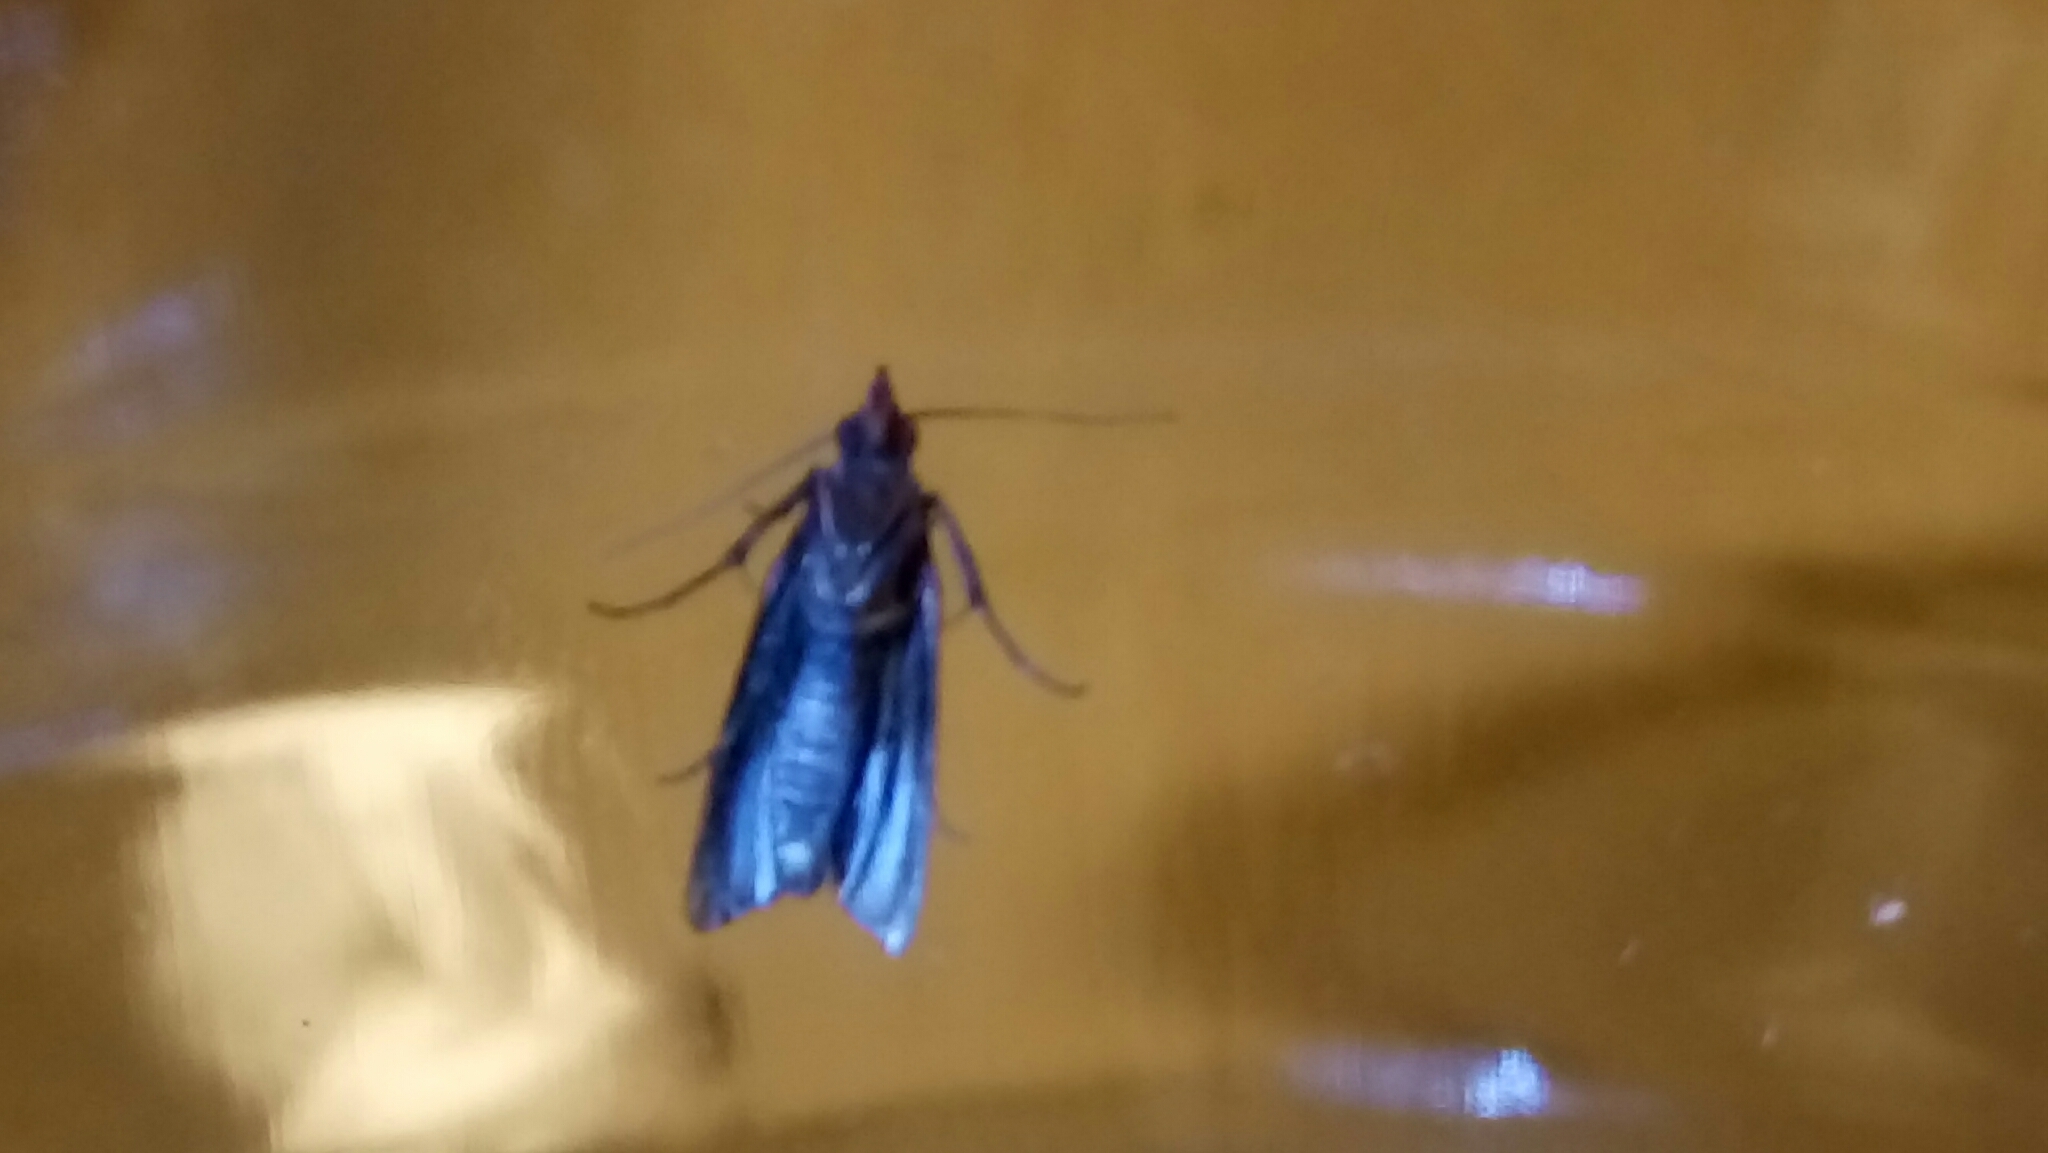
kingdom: Animalia
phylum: Arthropoda
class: Insecta
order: Lepidoptera
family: Pyralidae
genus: Plodia
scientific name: Plodia interpunctella
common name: Indian meal moth
